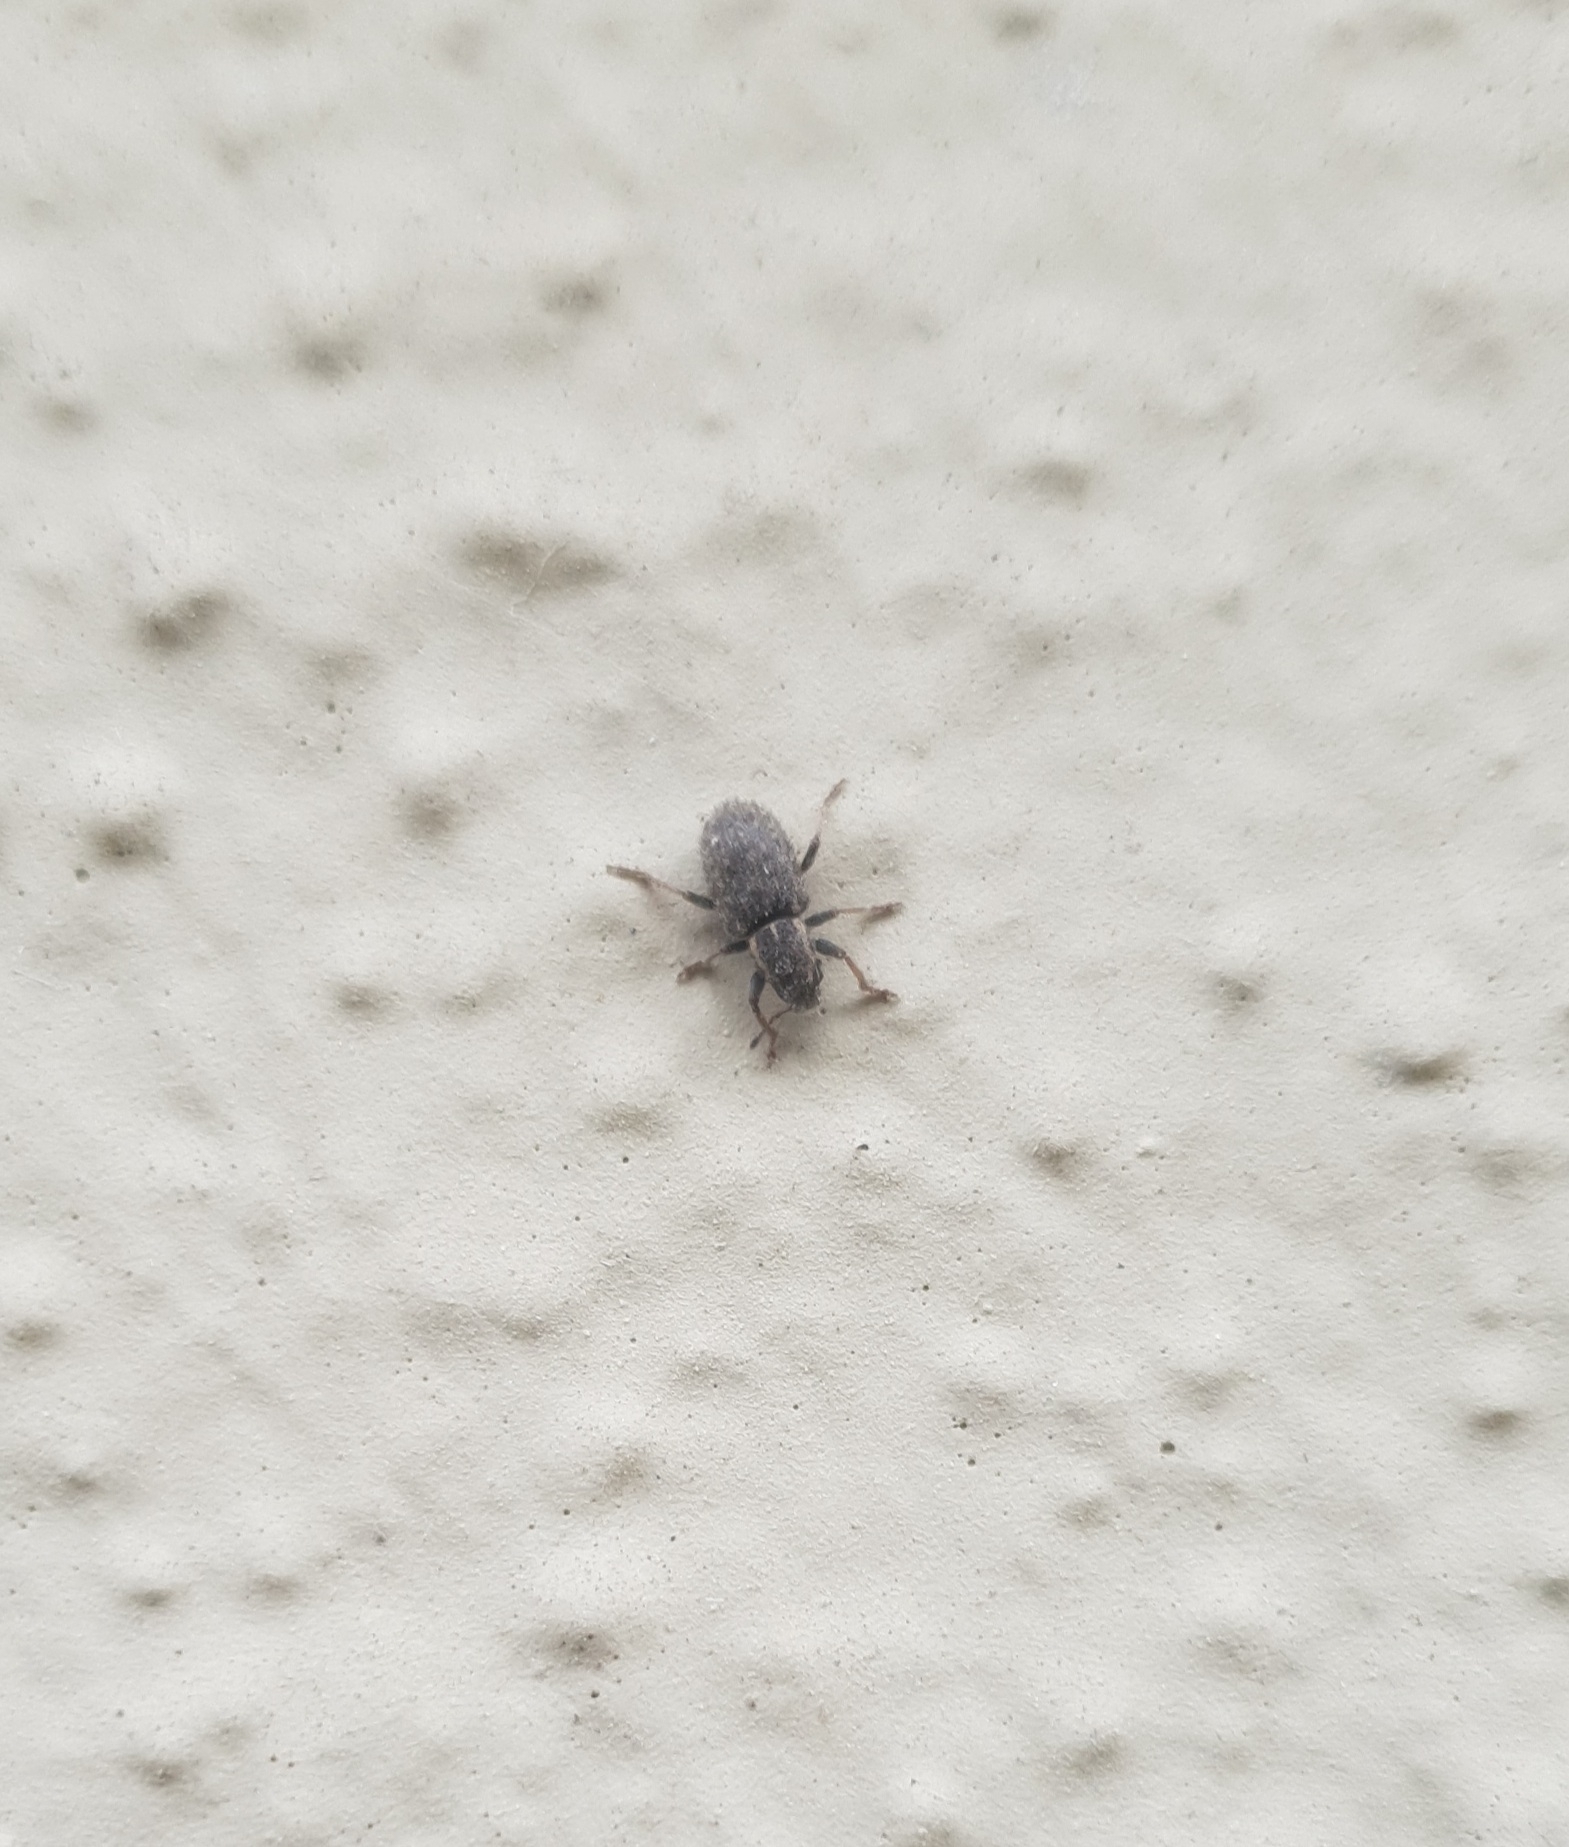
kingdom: Animalia
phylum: Arthropoda
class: Insecta
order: Coleoptera
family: Curculionidae
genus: Sitona
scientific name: Sitona hispidulus
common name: Clover weevil
